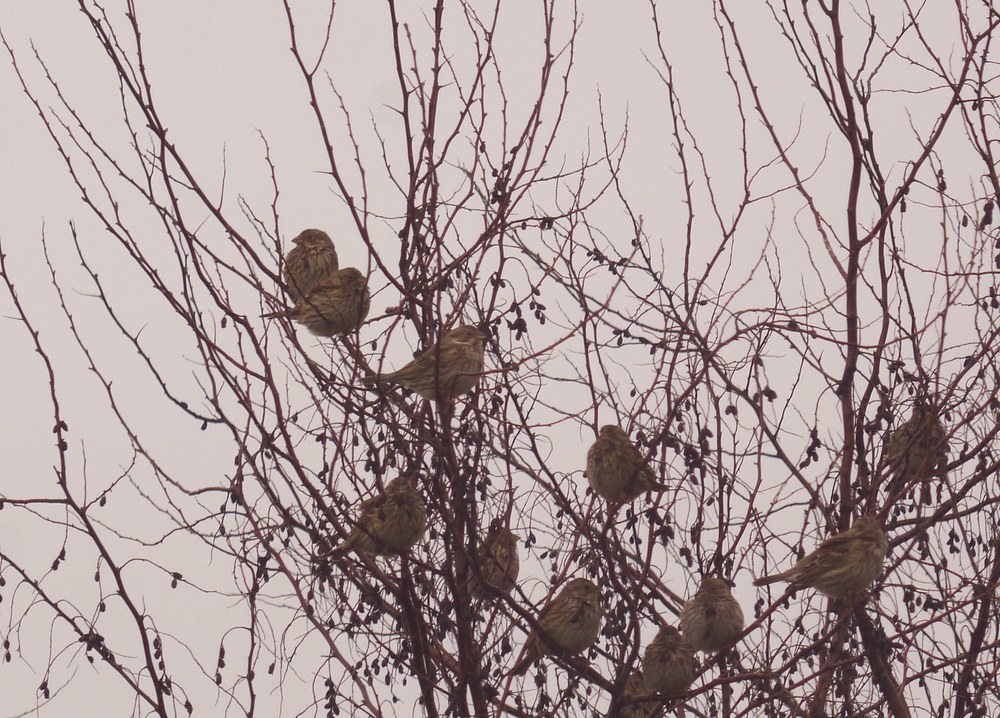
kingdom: Animalia
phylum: Chordata
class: Aves
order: Passeriformes
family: Emberizidae
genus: Emberiza
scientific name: Emberiza calandra
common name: Corn bunting
